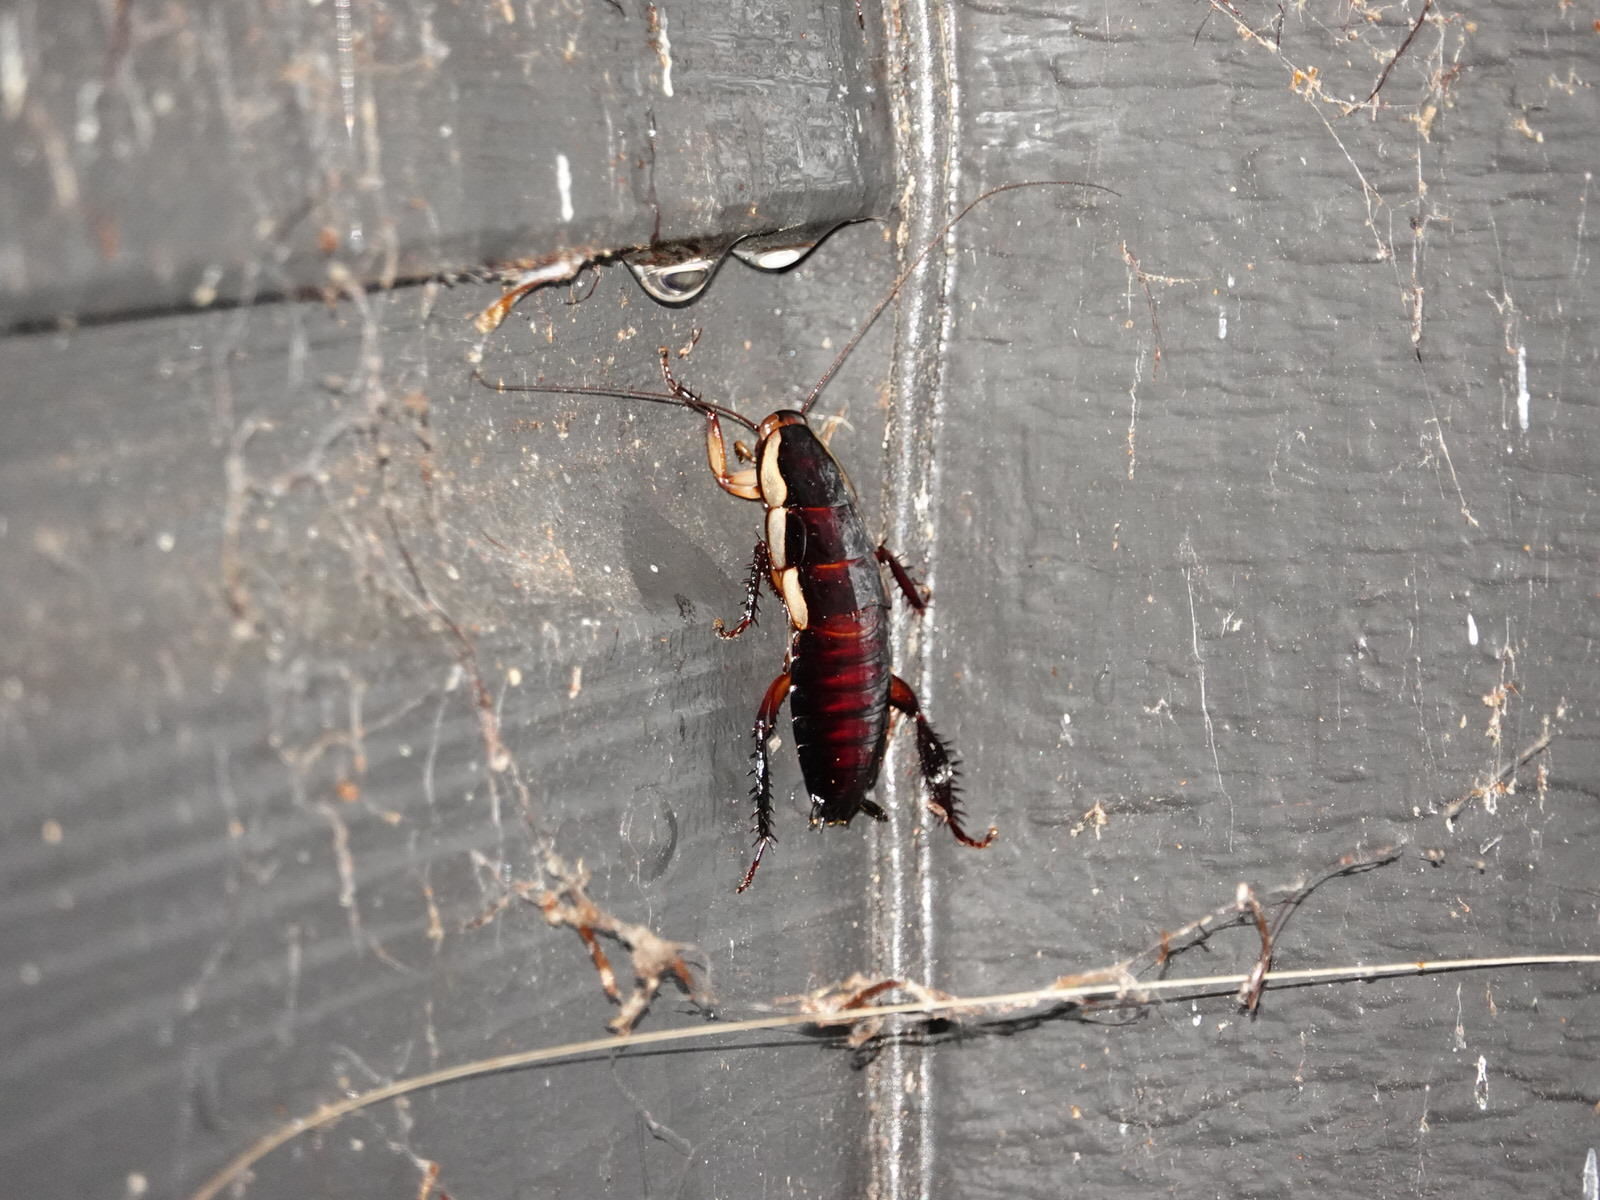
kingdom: Animalia
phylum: Arthropoda
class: Insecta
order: Blattodea
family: Blattidae
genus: Drymaplaneta
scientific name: Drymaplaneta semivitta
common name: Gisborne cockroach
